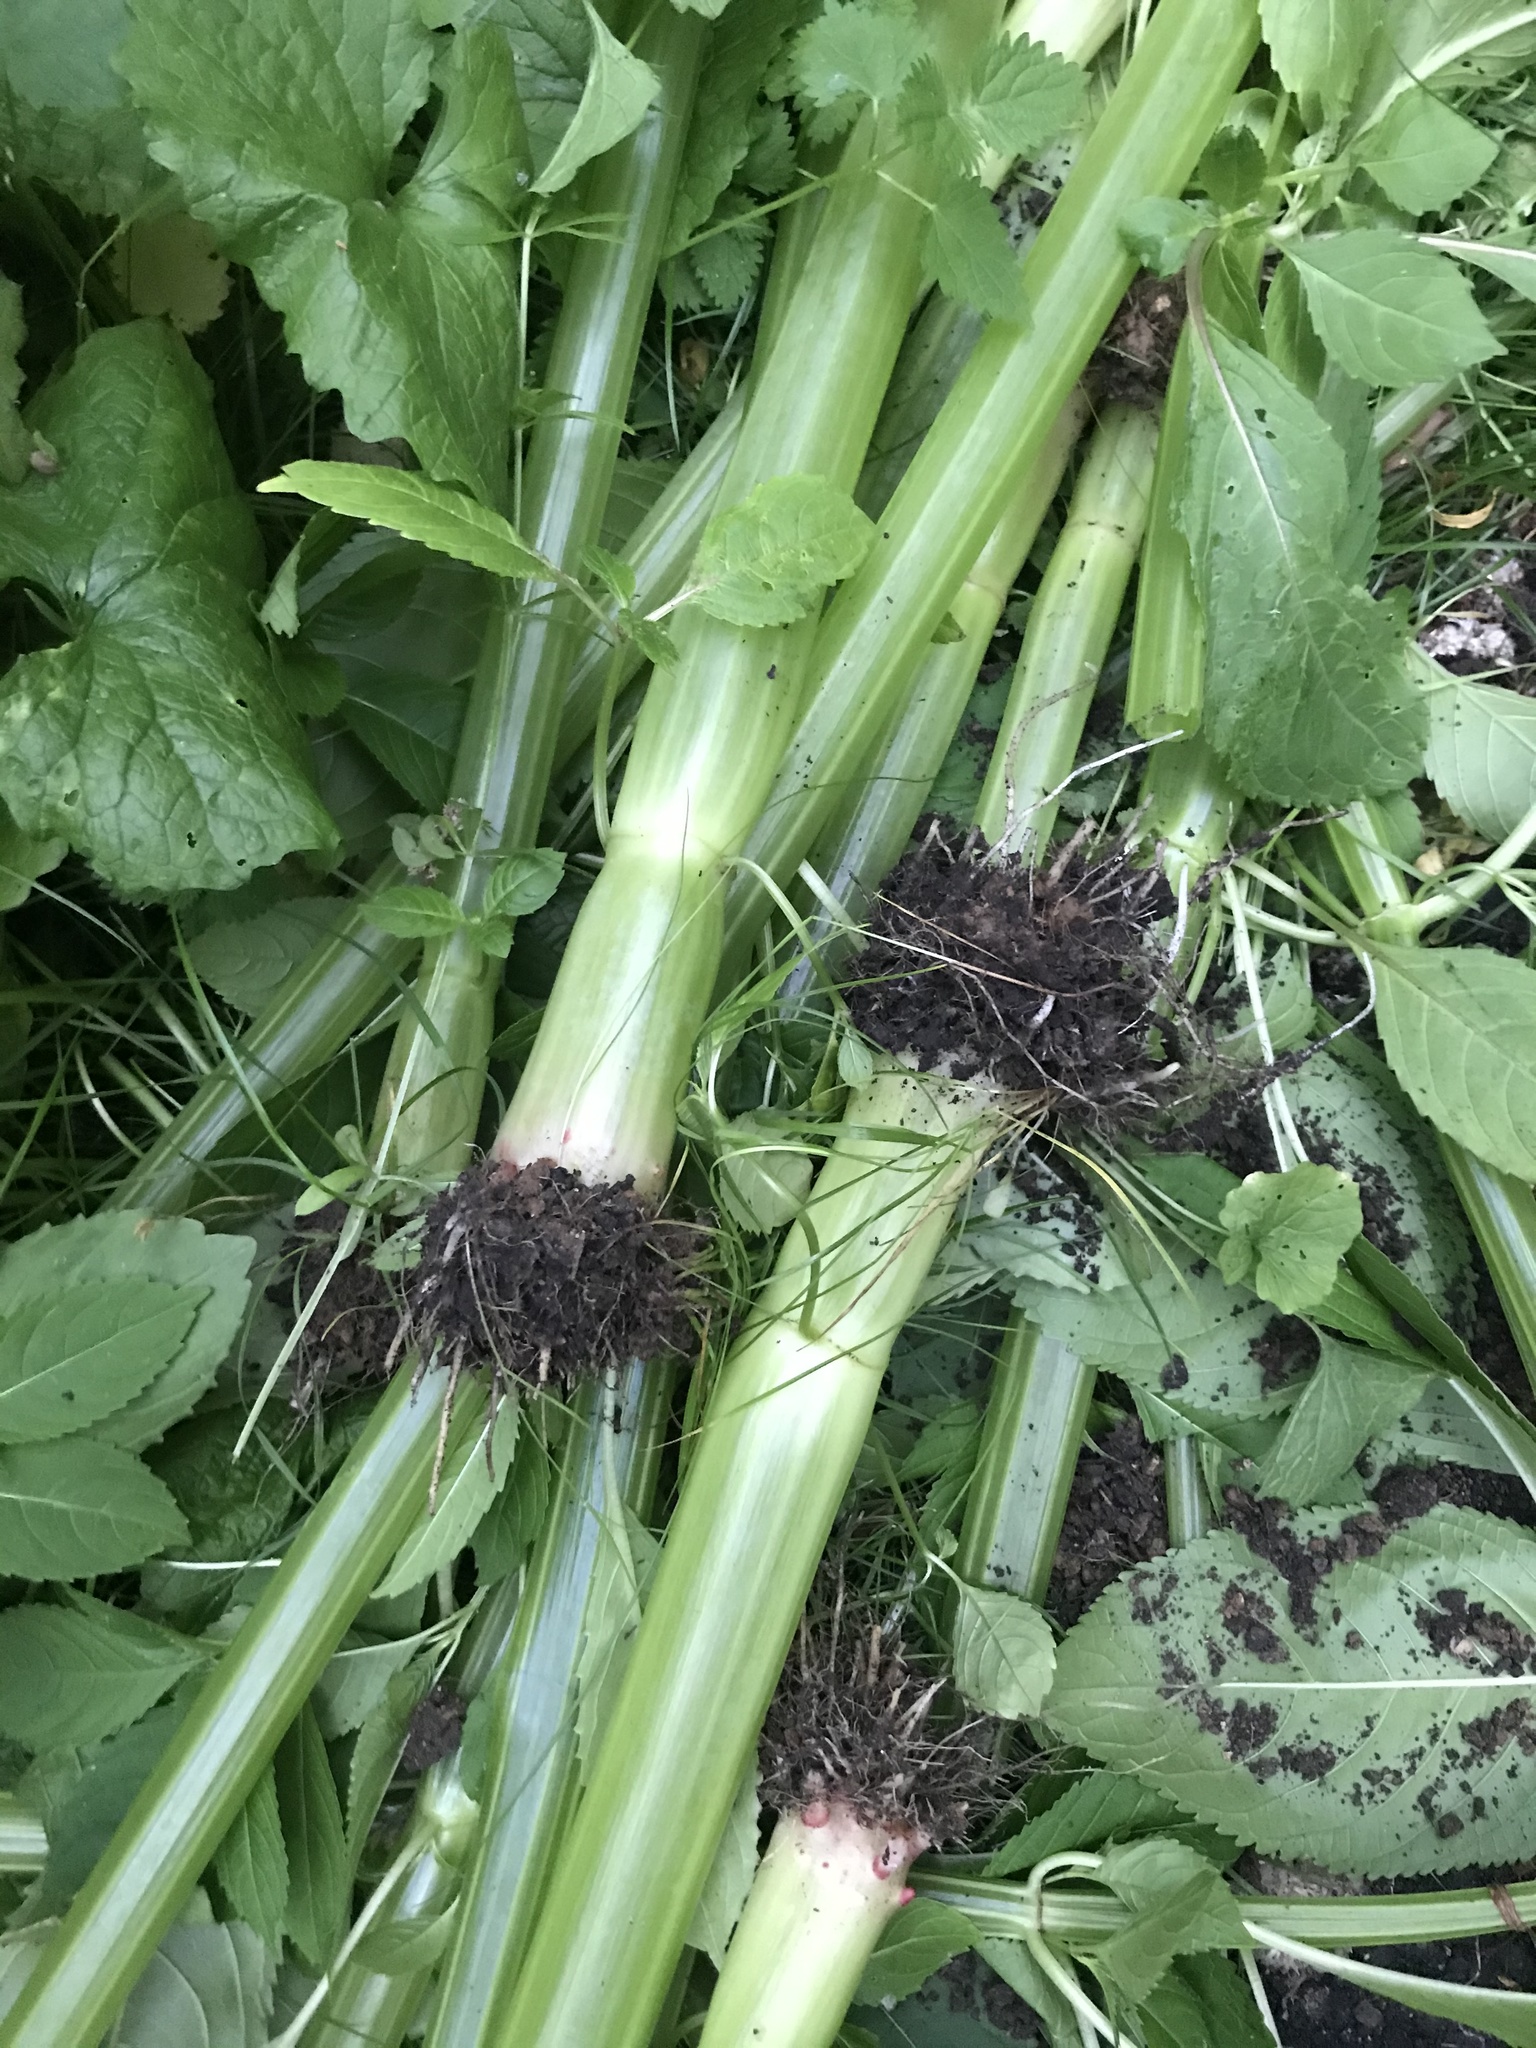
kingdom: Plantae
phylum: Tracheophyta
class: Magnoliopsida
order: Ericales
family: Balsaminaceae
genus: Impatiens
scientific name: Impatiens glandulifera
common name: Himalayan balsam
